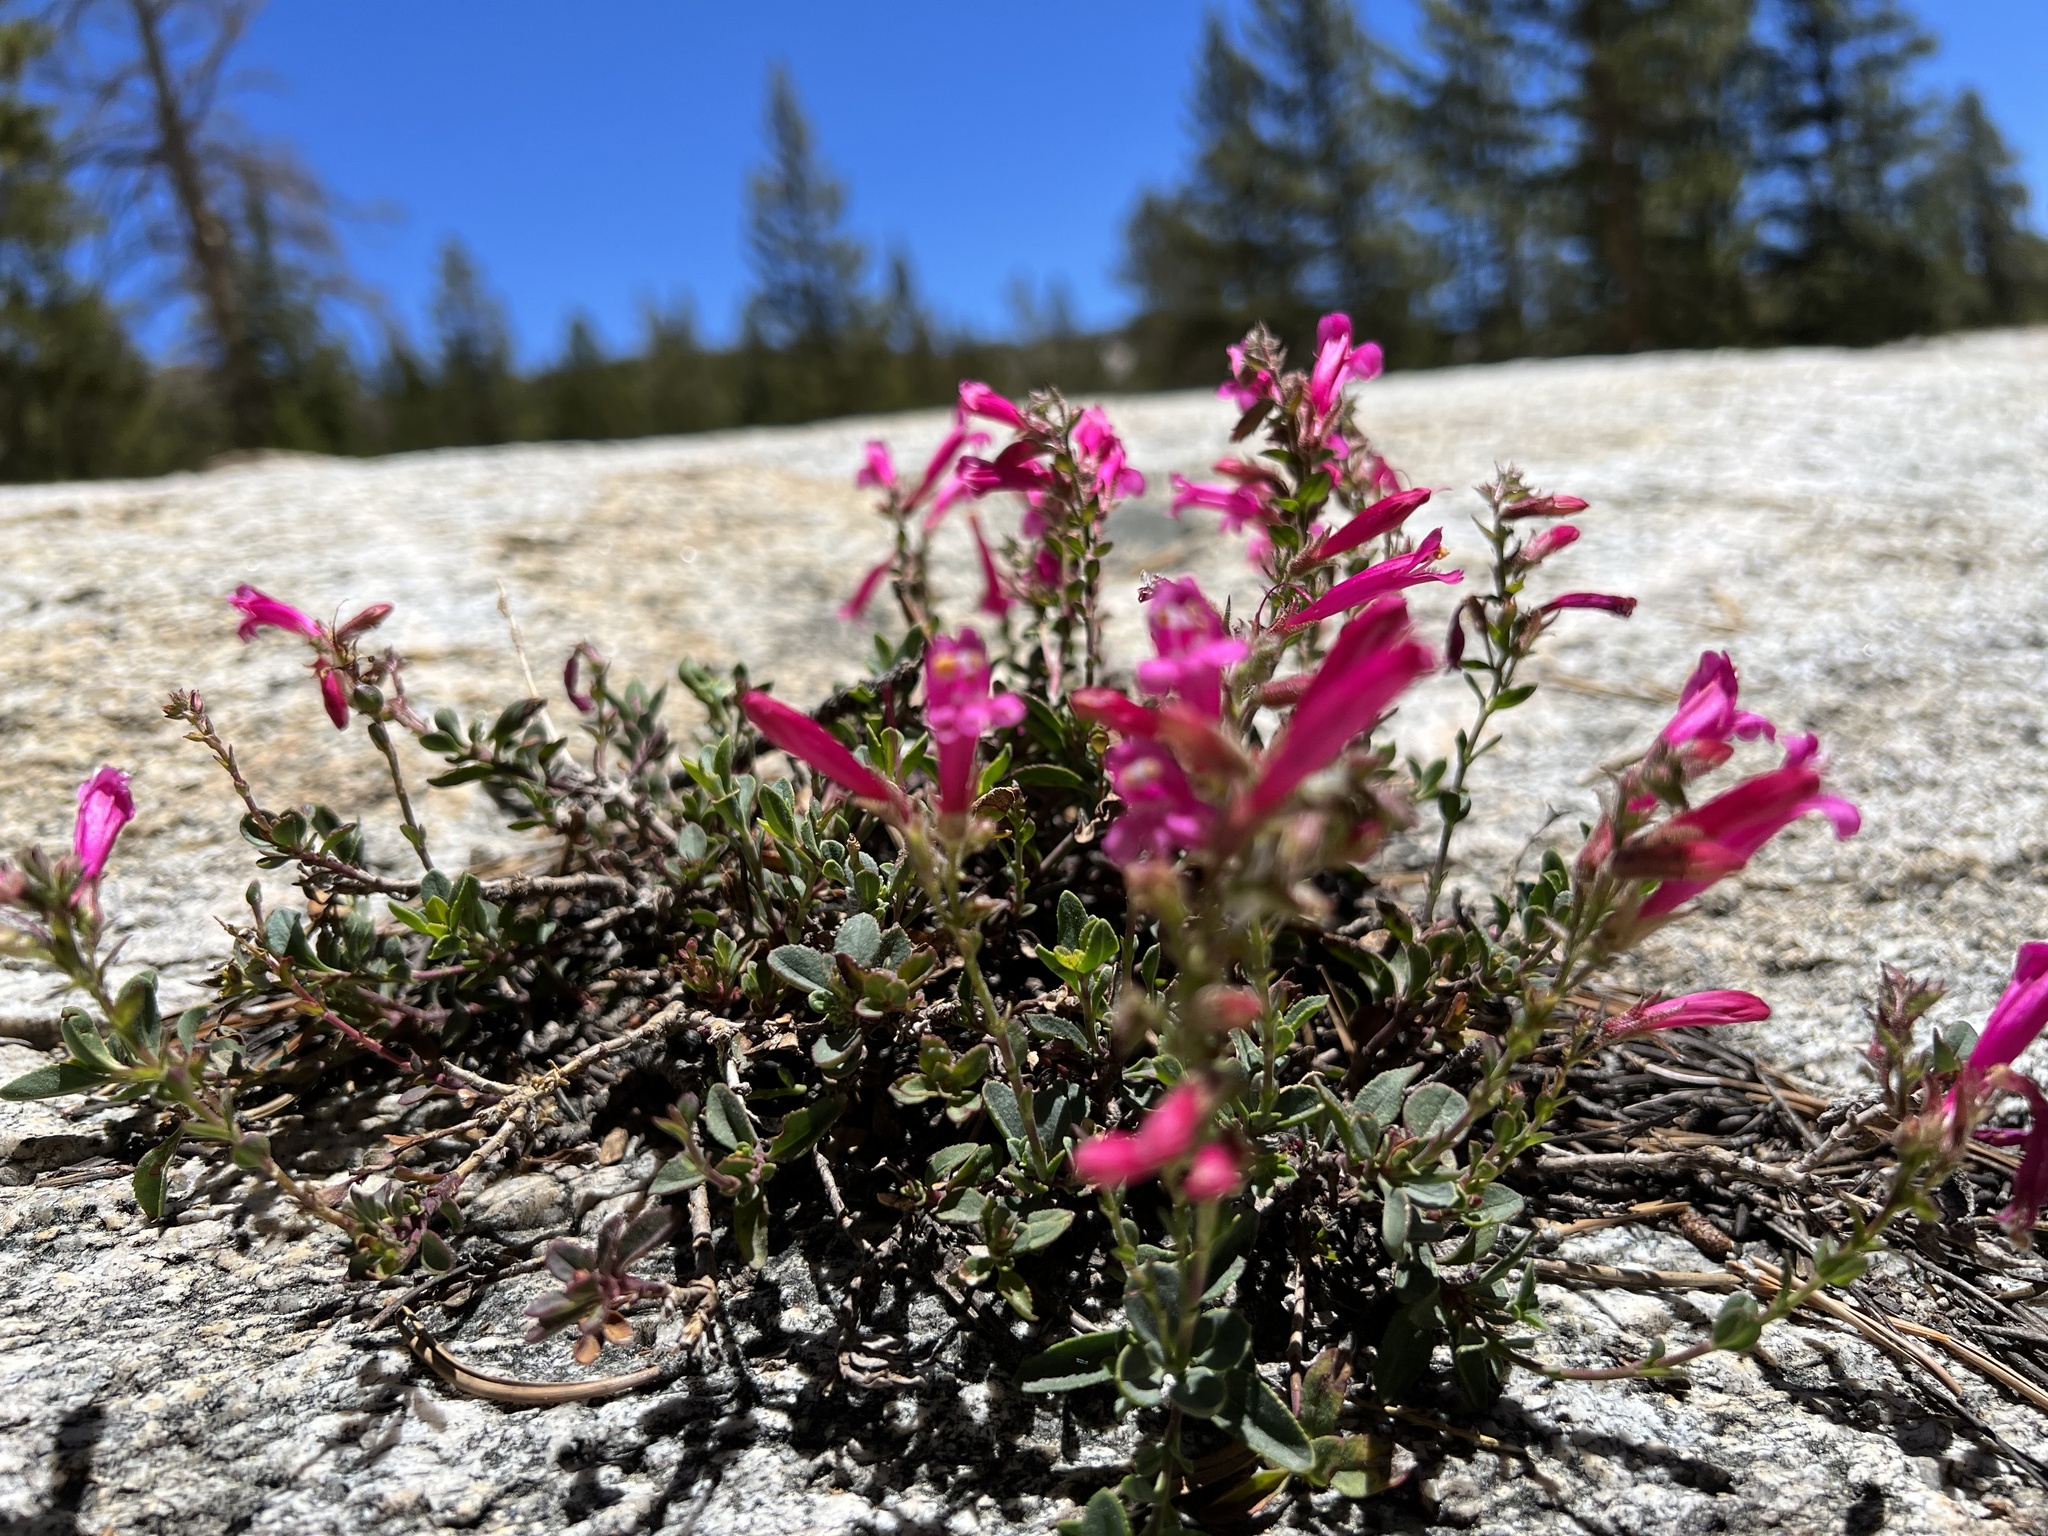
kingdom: Plantae
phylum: Tracheophyta
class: Magnoliopsida
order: Lamiales
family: Plantaginaceae
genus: Penstemon
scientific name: Penstemon newberryi
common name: Mountain-pride
